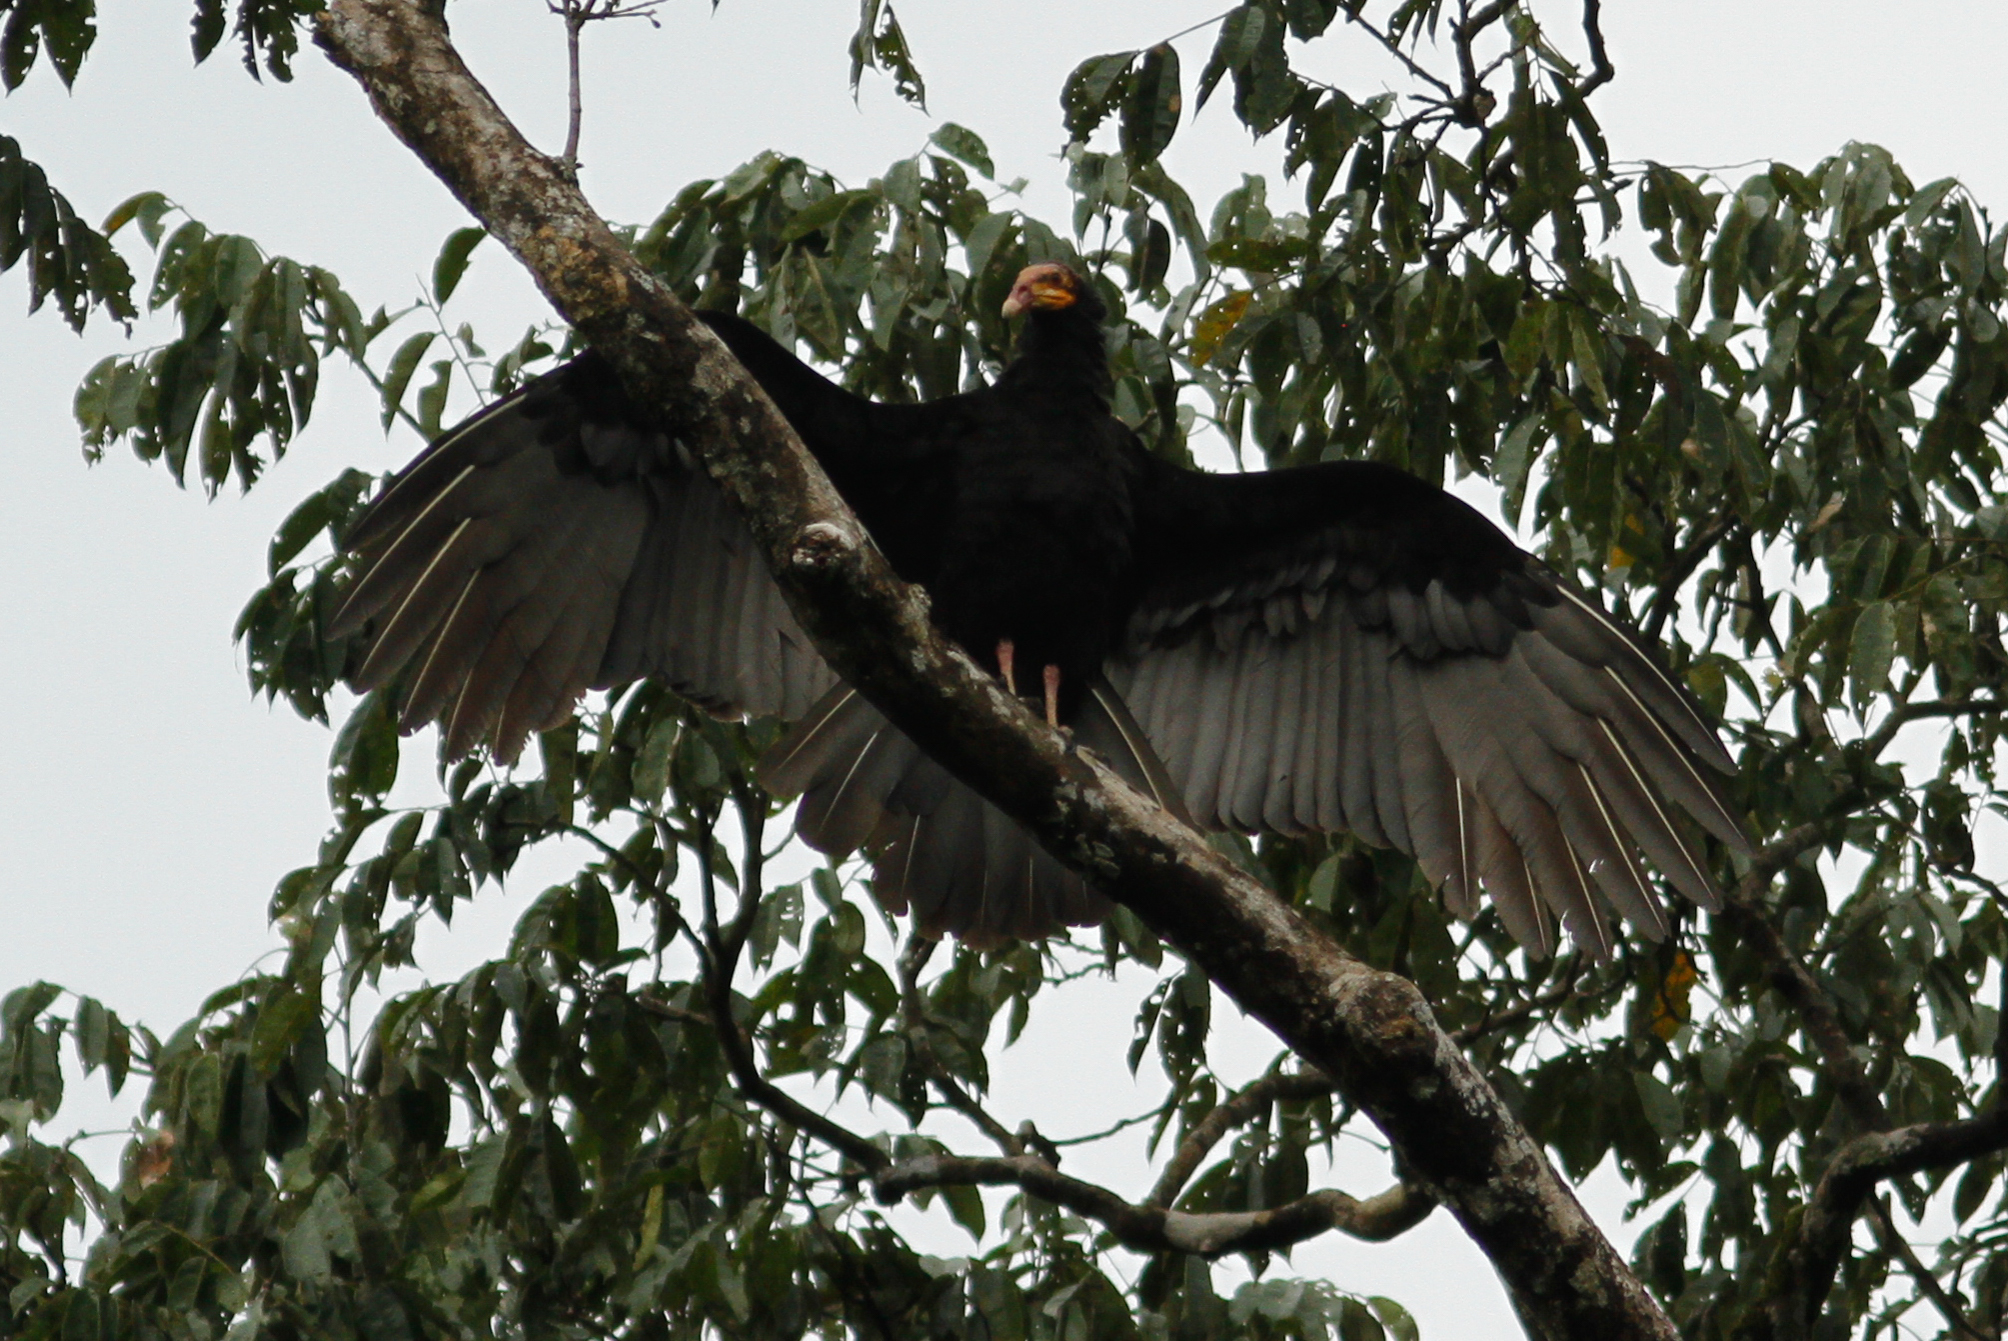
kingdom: Animalia
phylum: Chordata
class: Aves
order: Accipitriformes
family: Cathartidae
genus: Cathartes
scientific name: Cathartes melambrotus
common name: Greater yellow-headed vulture
